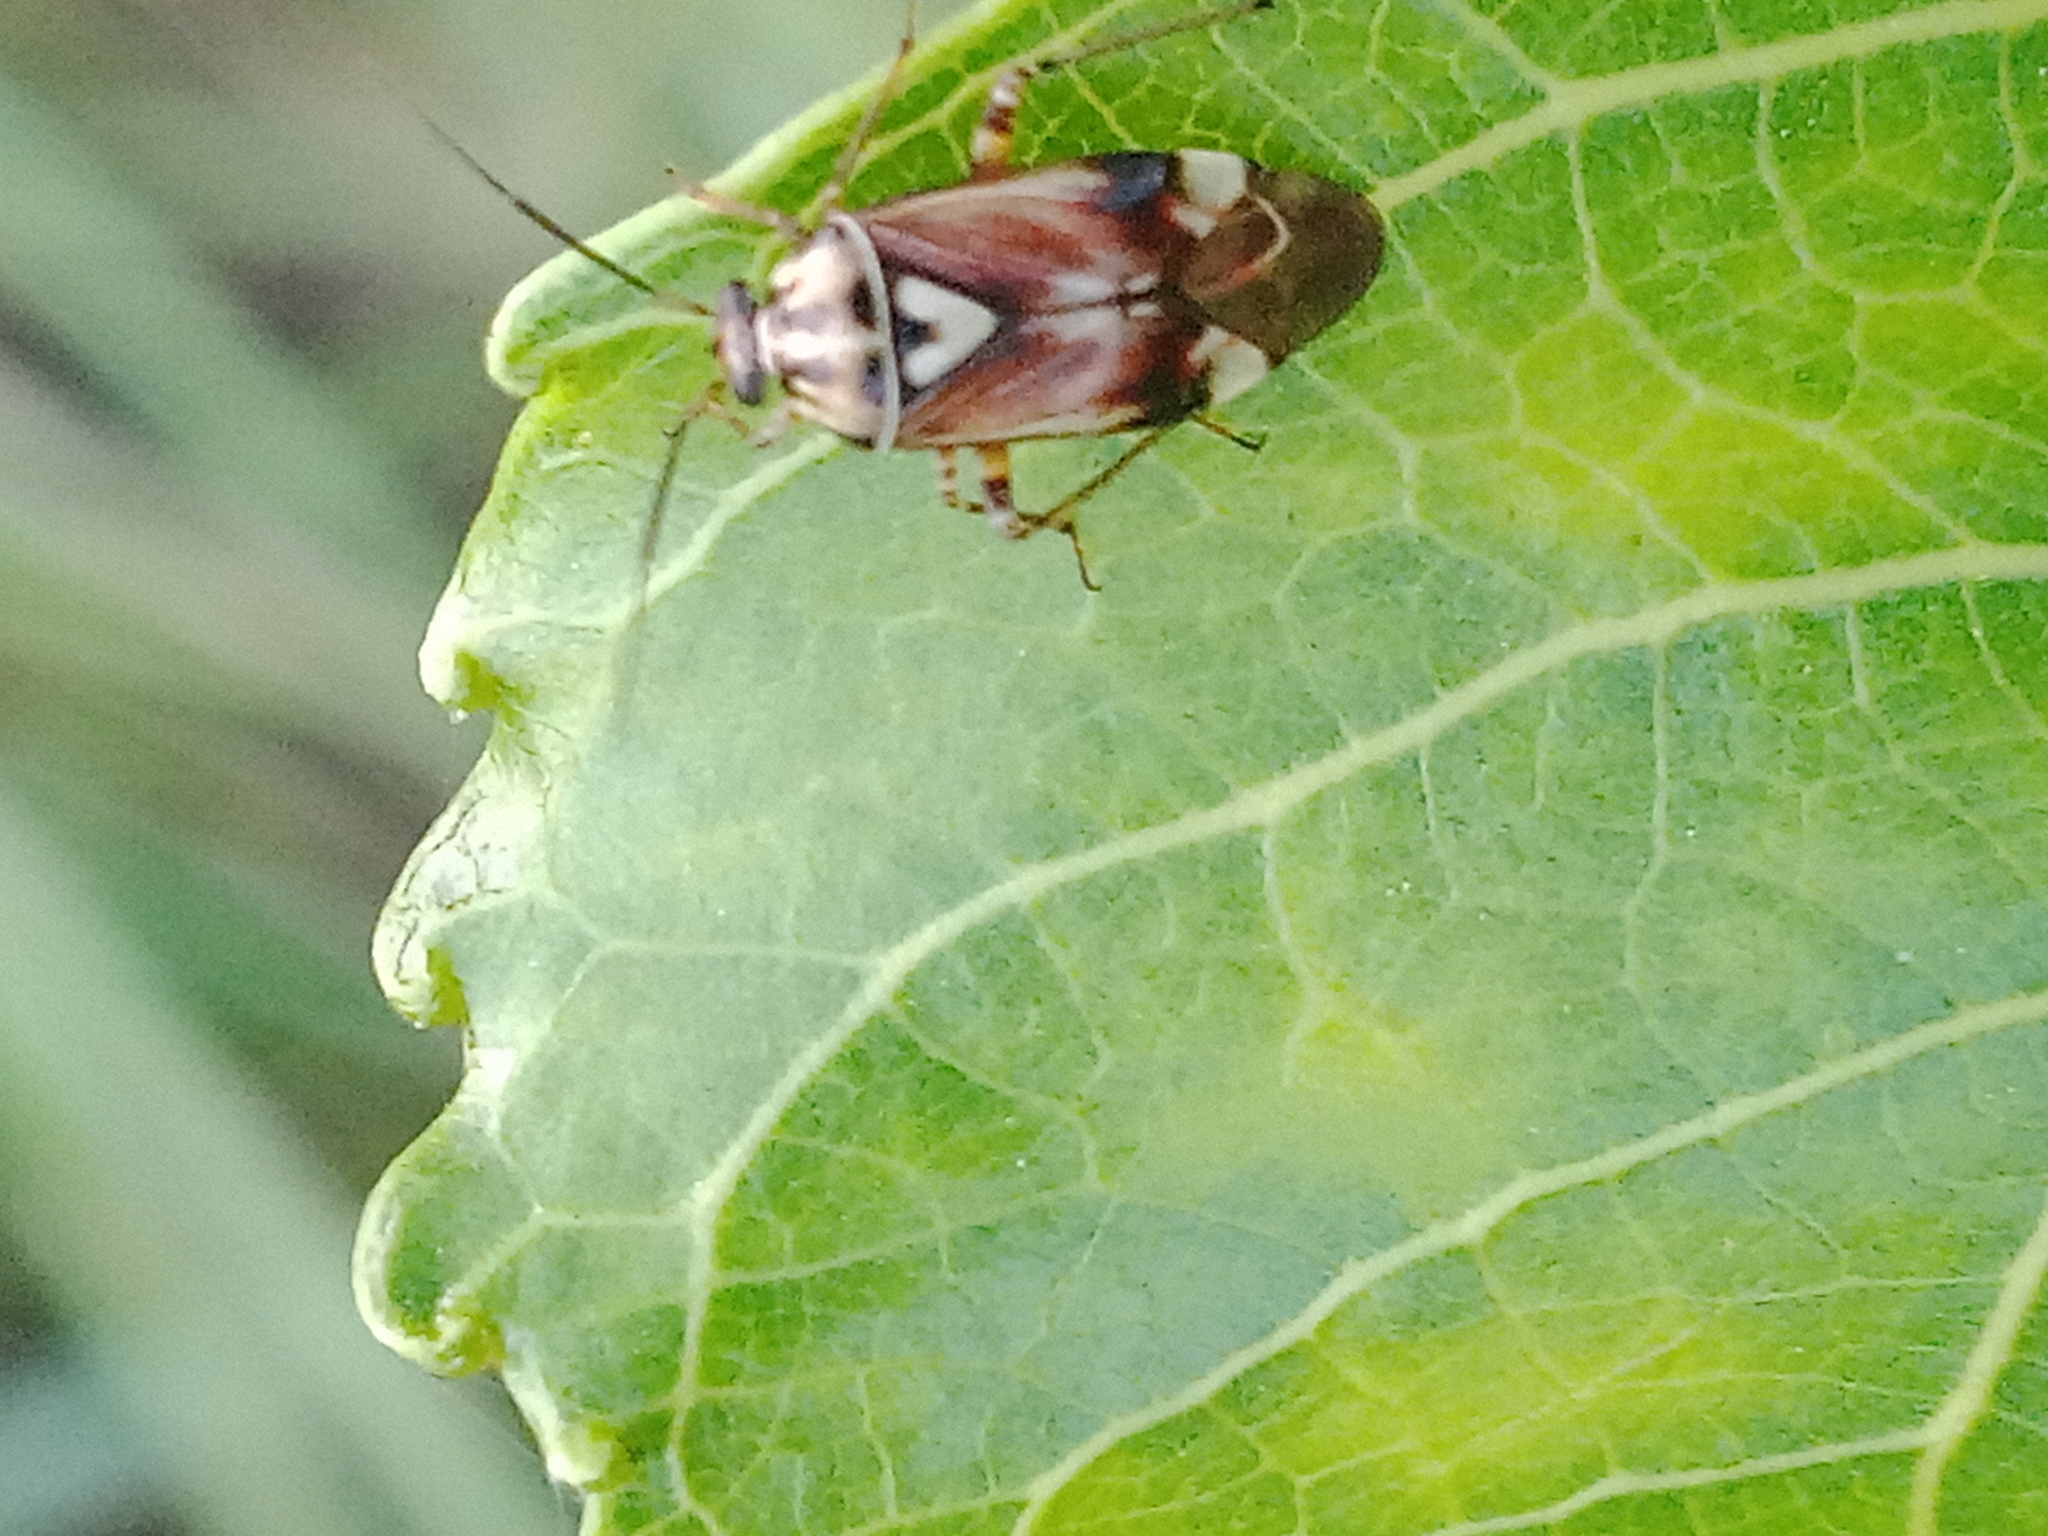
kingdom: Animalia
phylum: Arthropoda
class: Insecta
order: Hemiptera
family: Miridae
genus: Lygus
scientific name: Lygus pratensis
